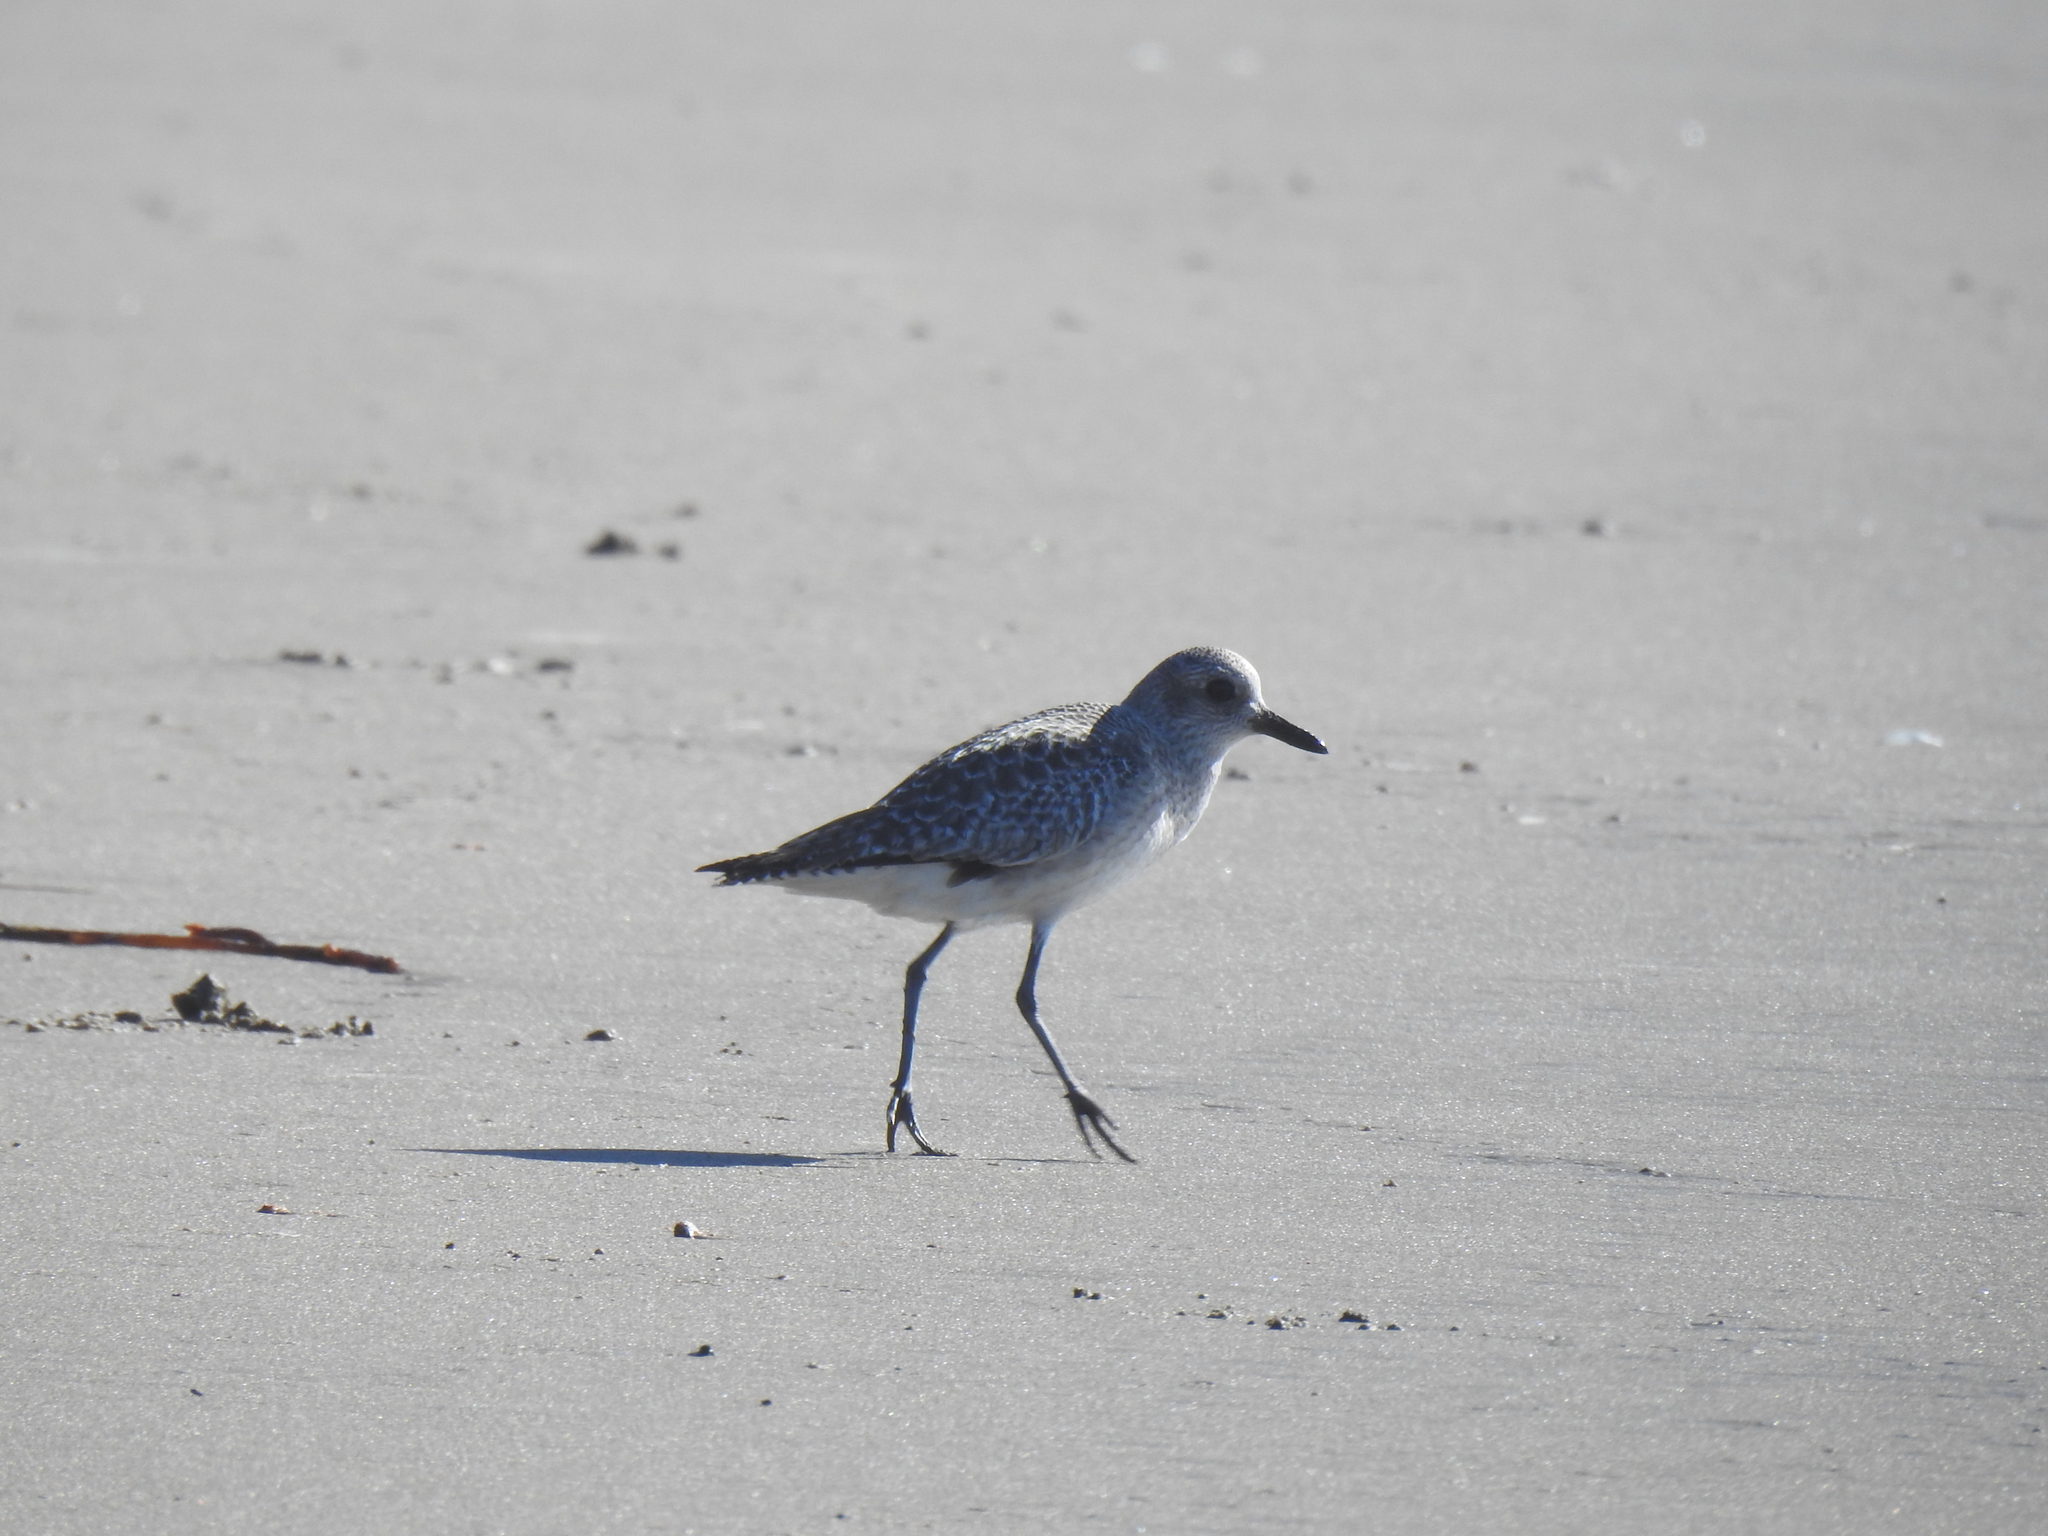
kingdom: Animalia
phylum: Chordata
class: Aves
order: Charadriiformes
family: Charadriidae
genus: Pluvialis
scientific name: Pluvialis squatarola
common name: Grey plover
